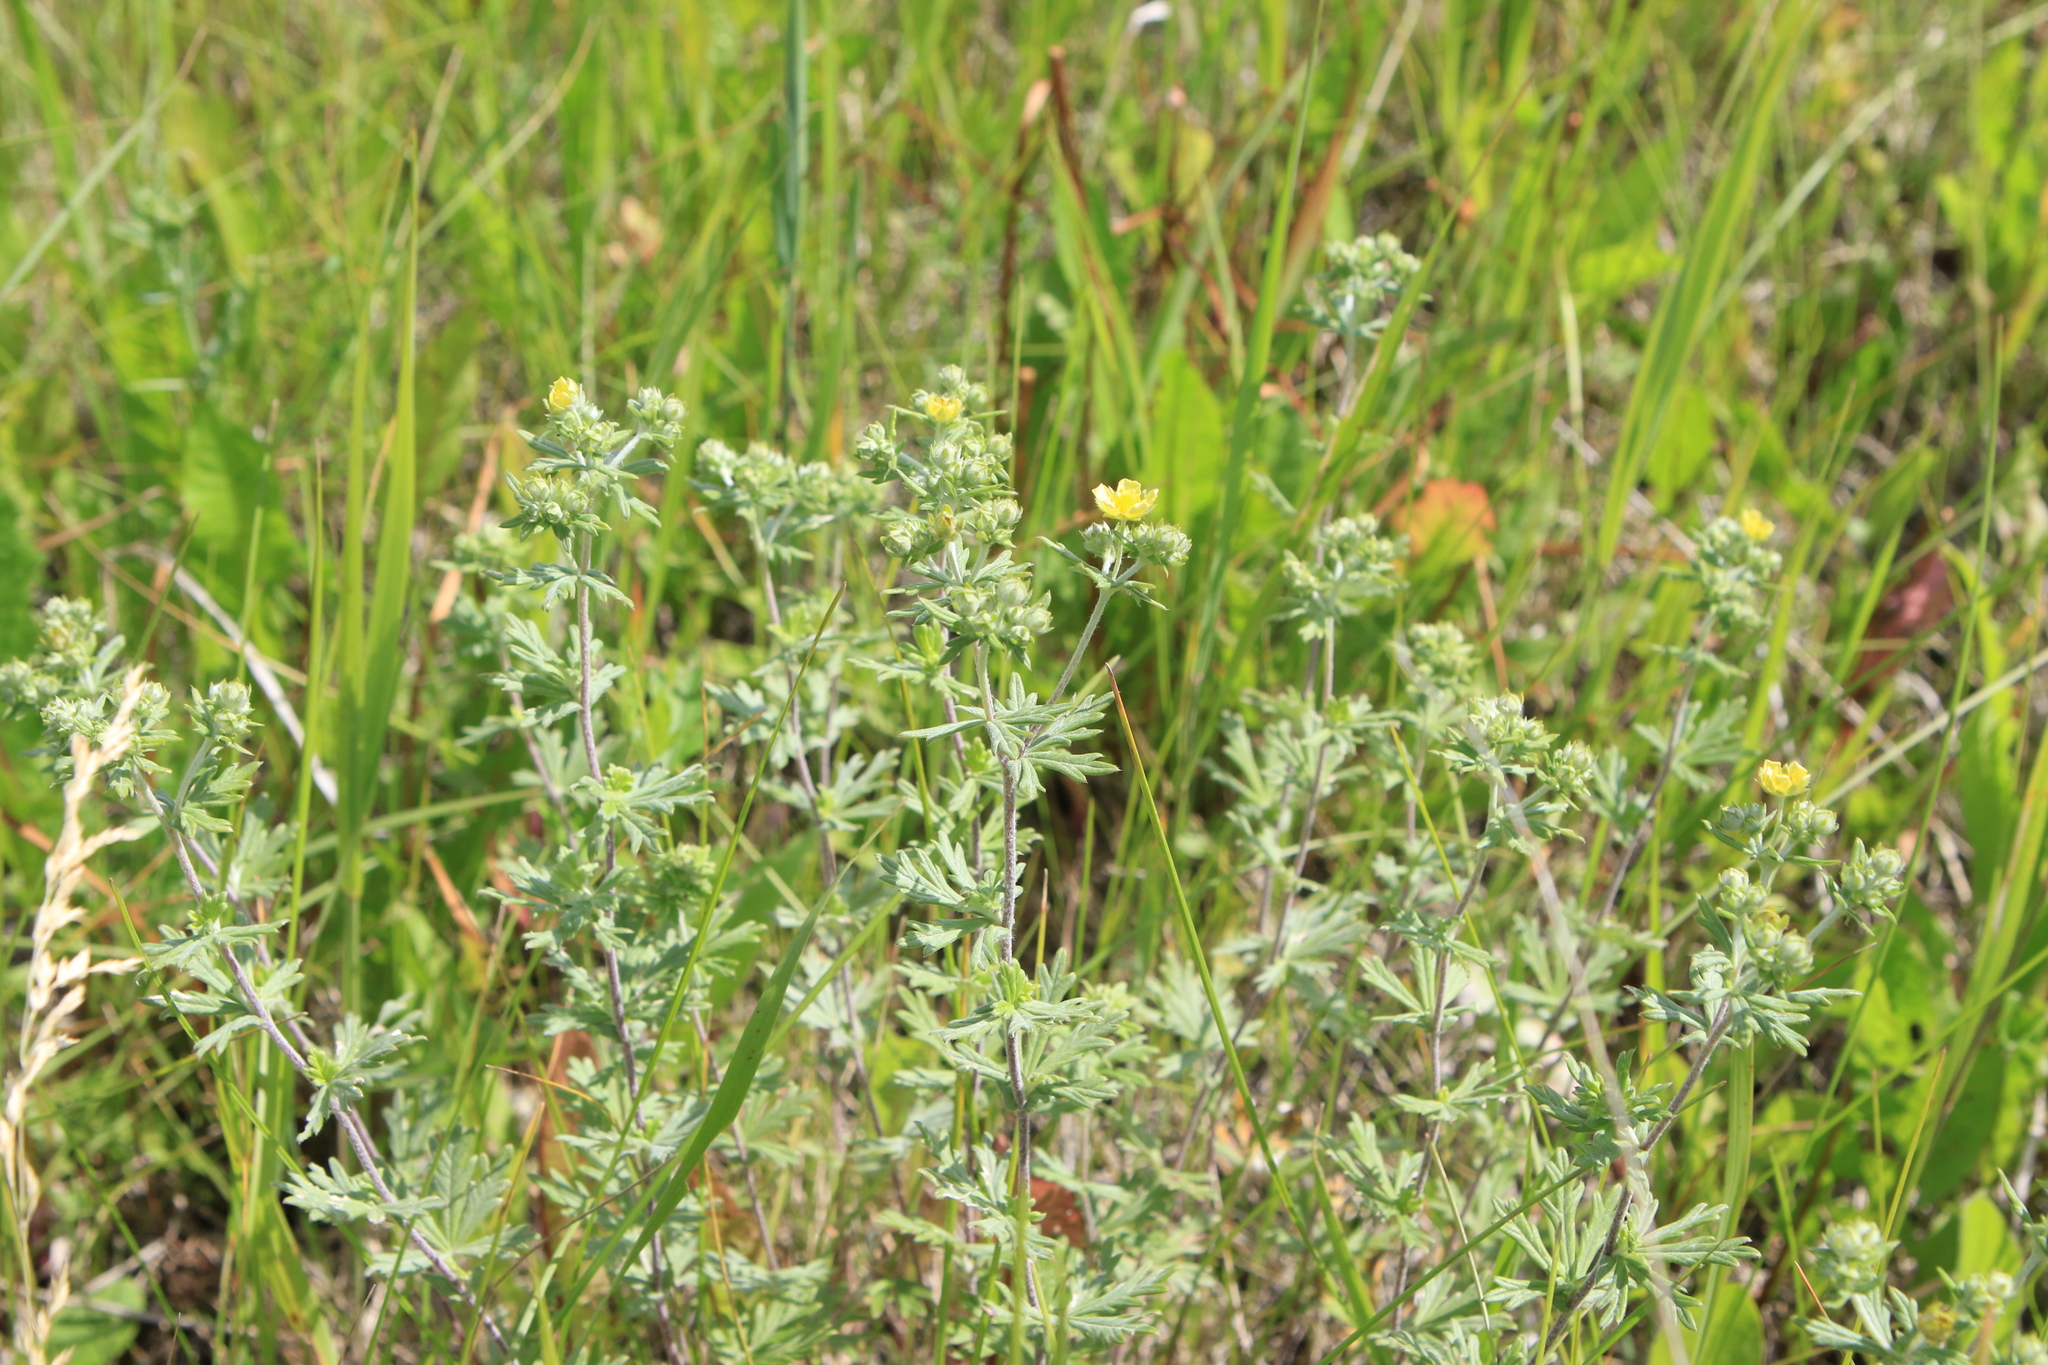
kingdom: Plantae
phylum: Tracheophyta
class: Magnoliopsida
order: Rosales
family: Rosaceae
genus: Potentilla
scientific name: Potentilla argentea
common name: Hoary cinquefoil
